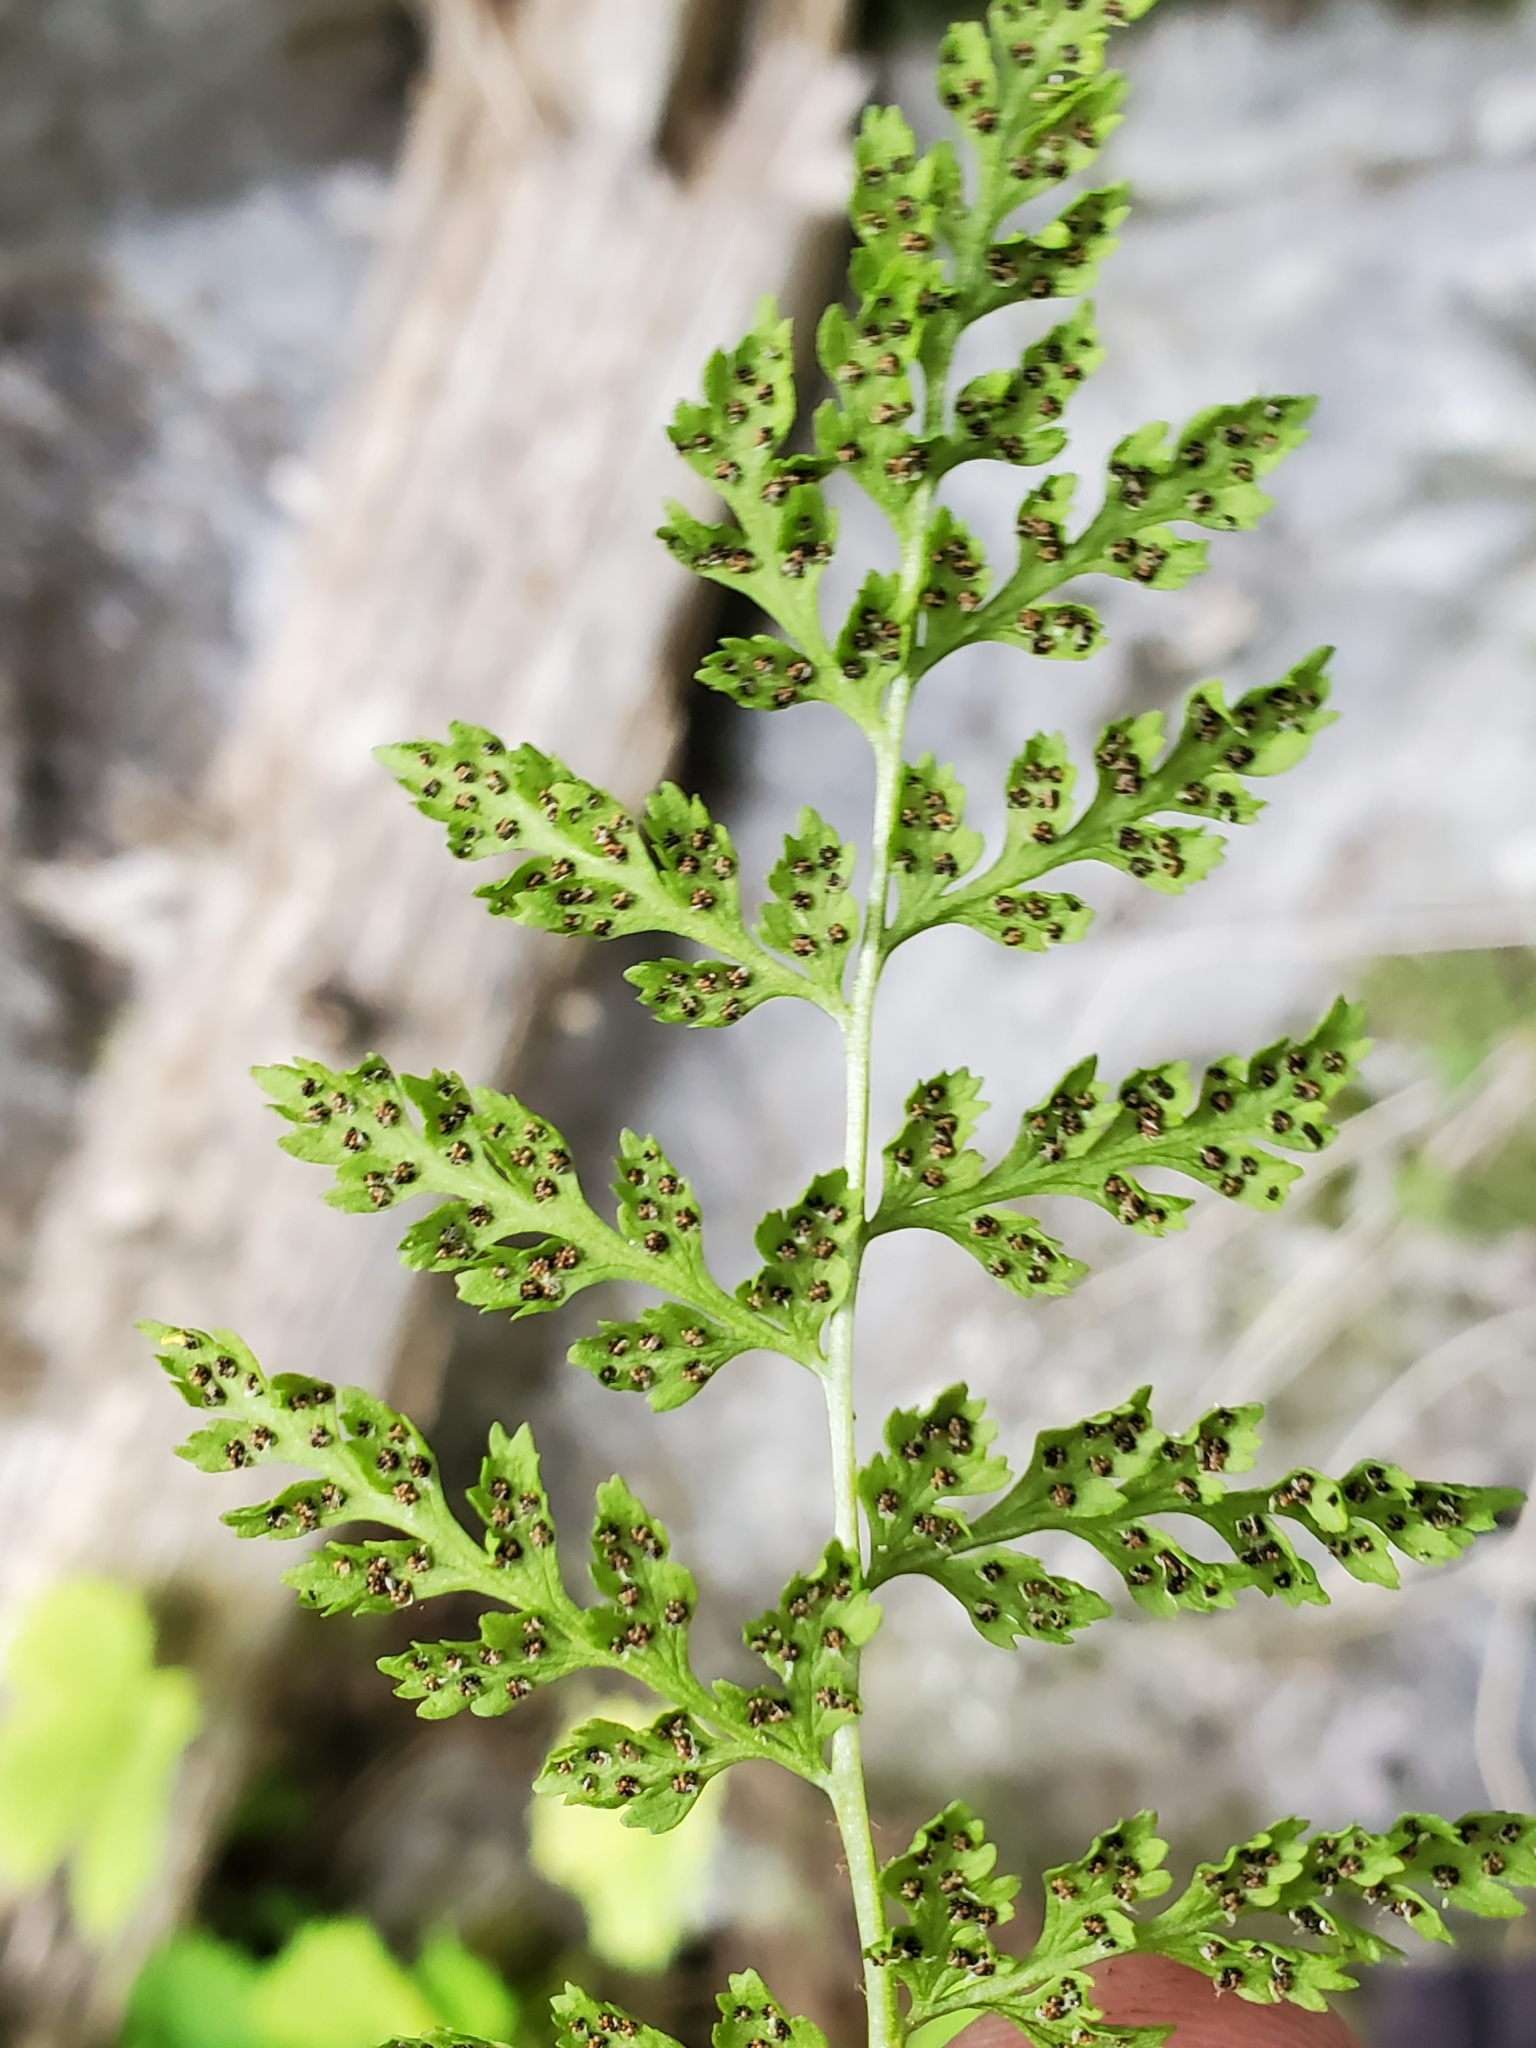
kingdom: Plantae
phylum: Tracheophyta
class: Polypodiopsida
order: Polypodiales
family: Cystopteridaceae
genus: Cystopteris
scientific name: Cystopteris fragilis
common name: Brittle bladder fern
